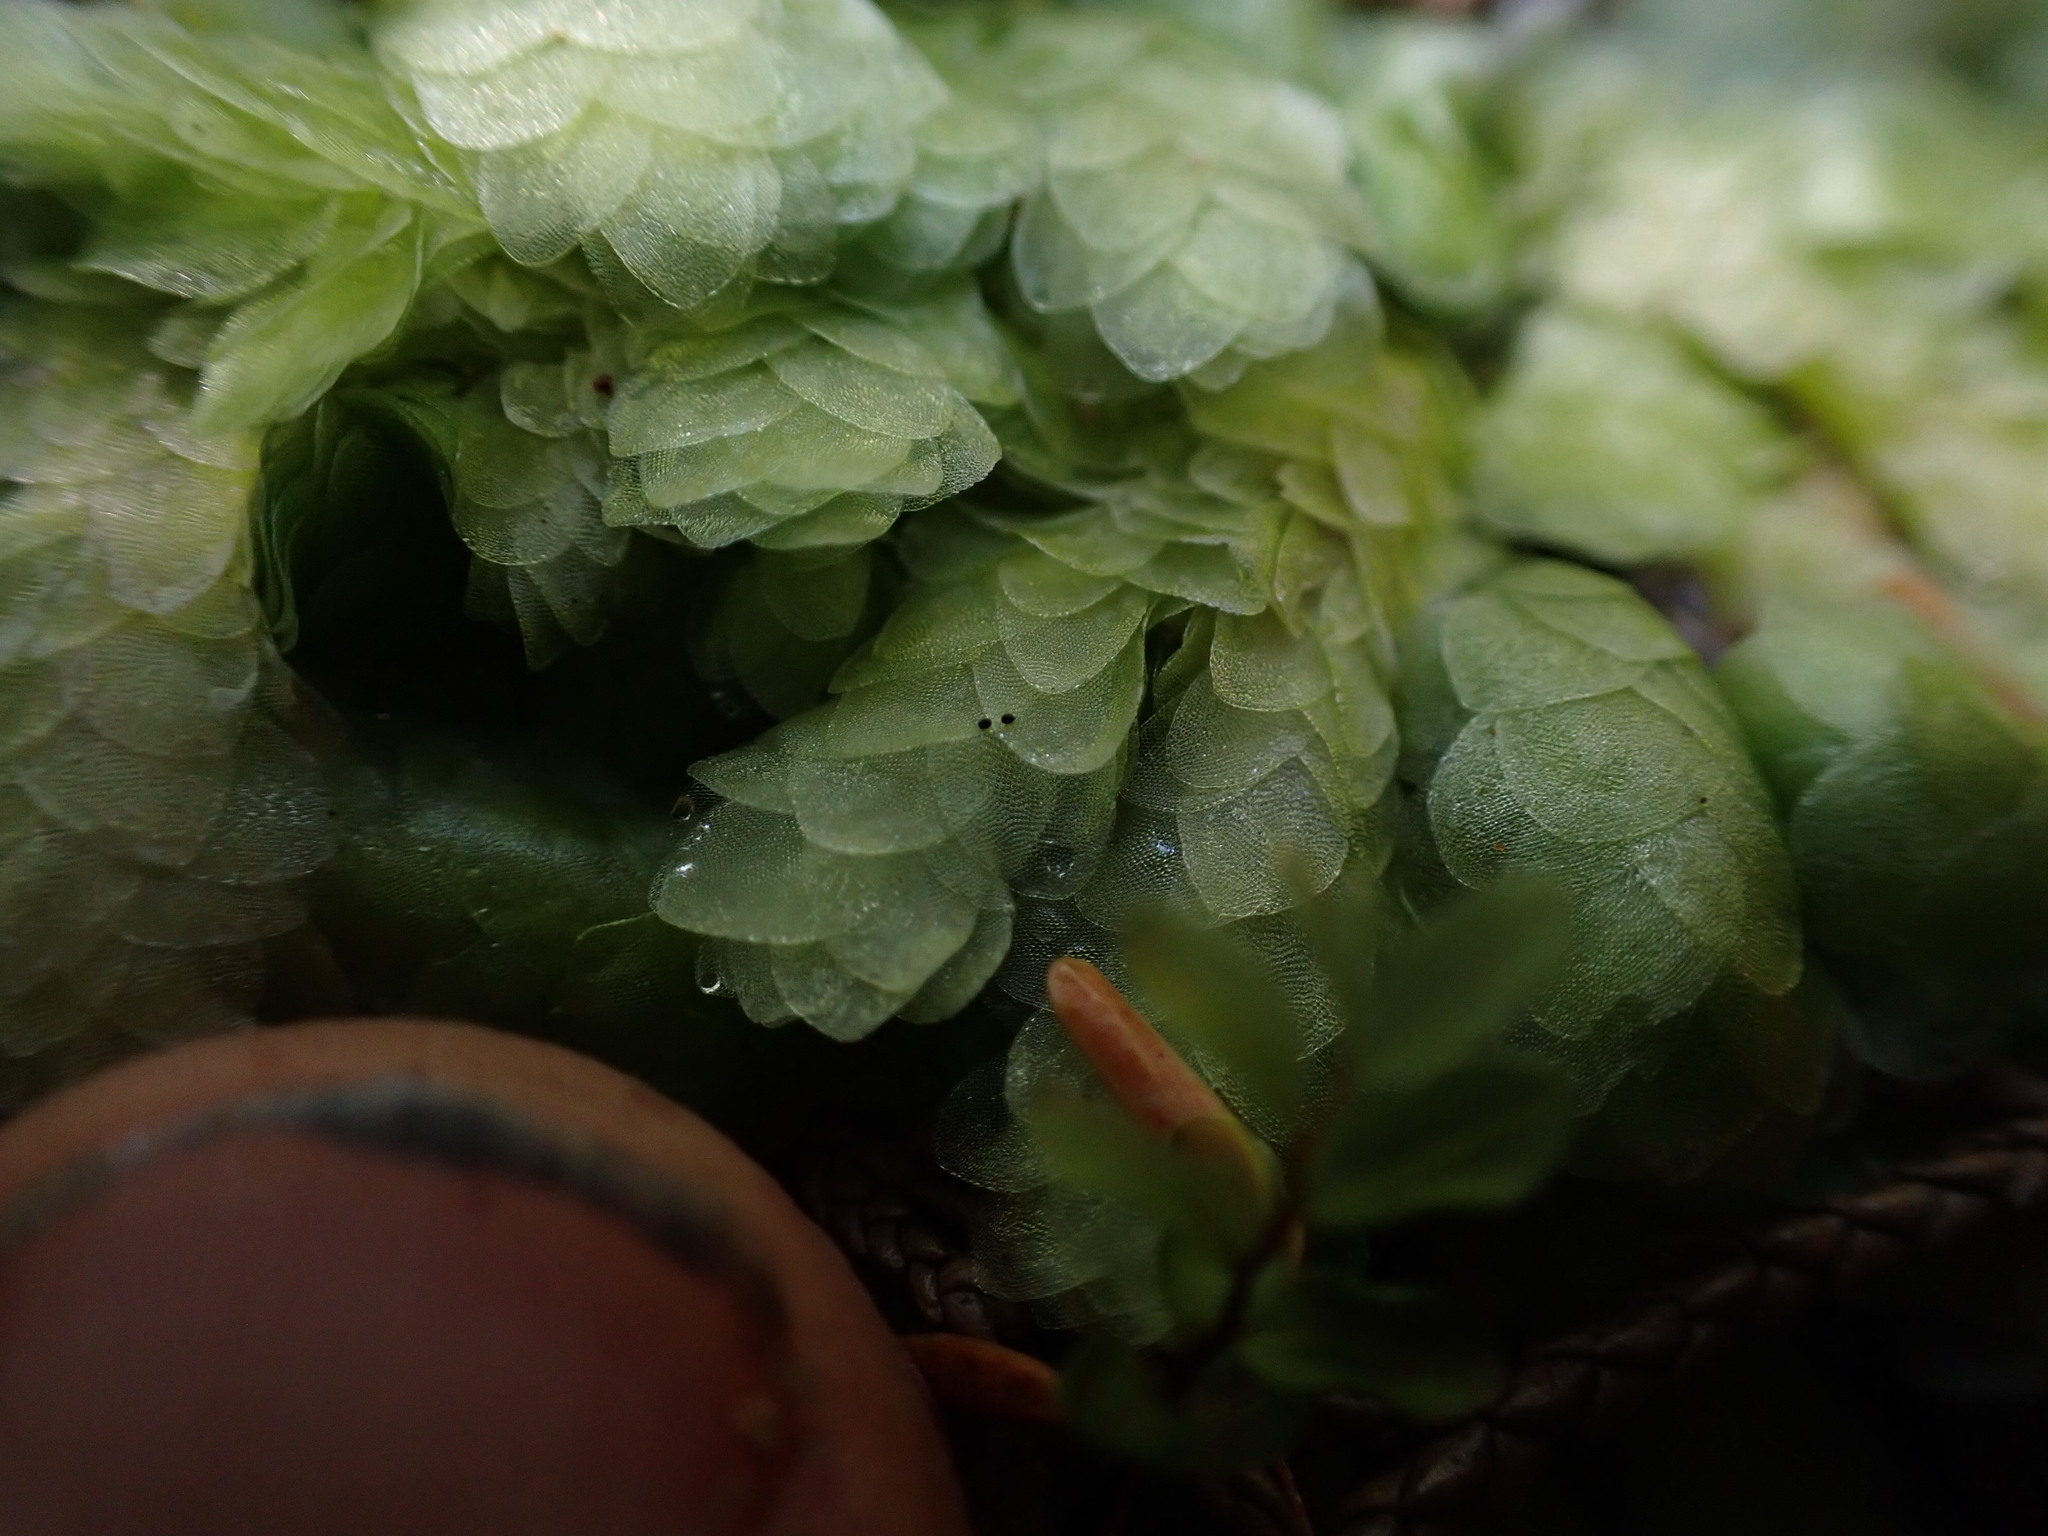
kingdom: Plantae
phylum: Bryophyta
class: Bryopsida
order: Hookeriales
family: Hookeriaceae
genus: Hookeria
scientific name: Hookeria lucens
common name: Shining hookeria
